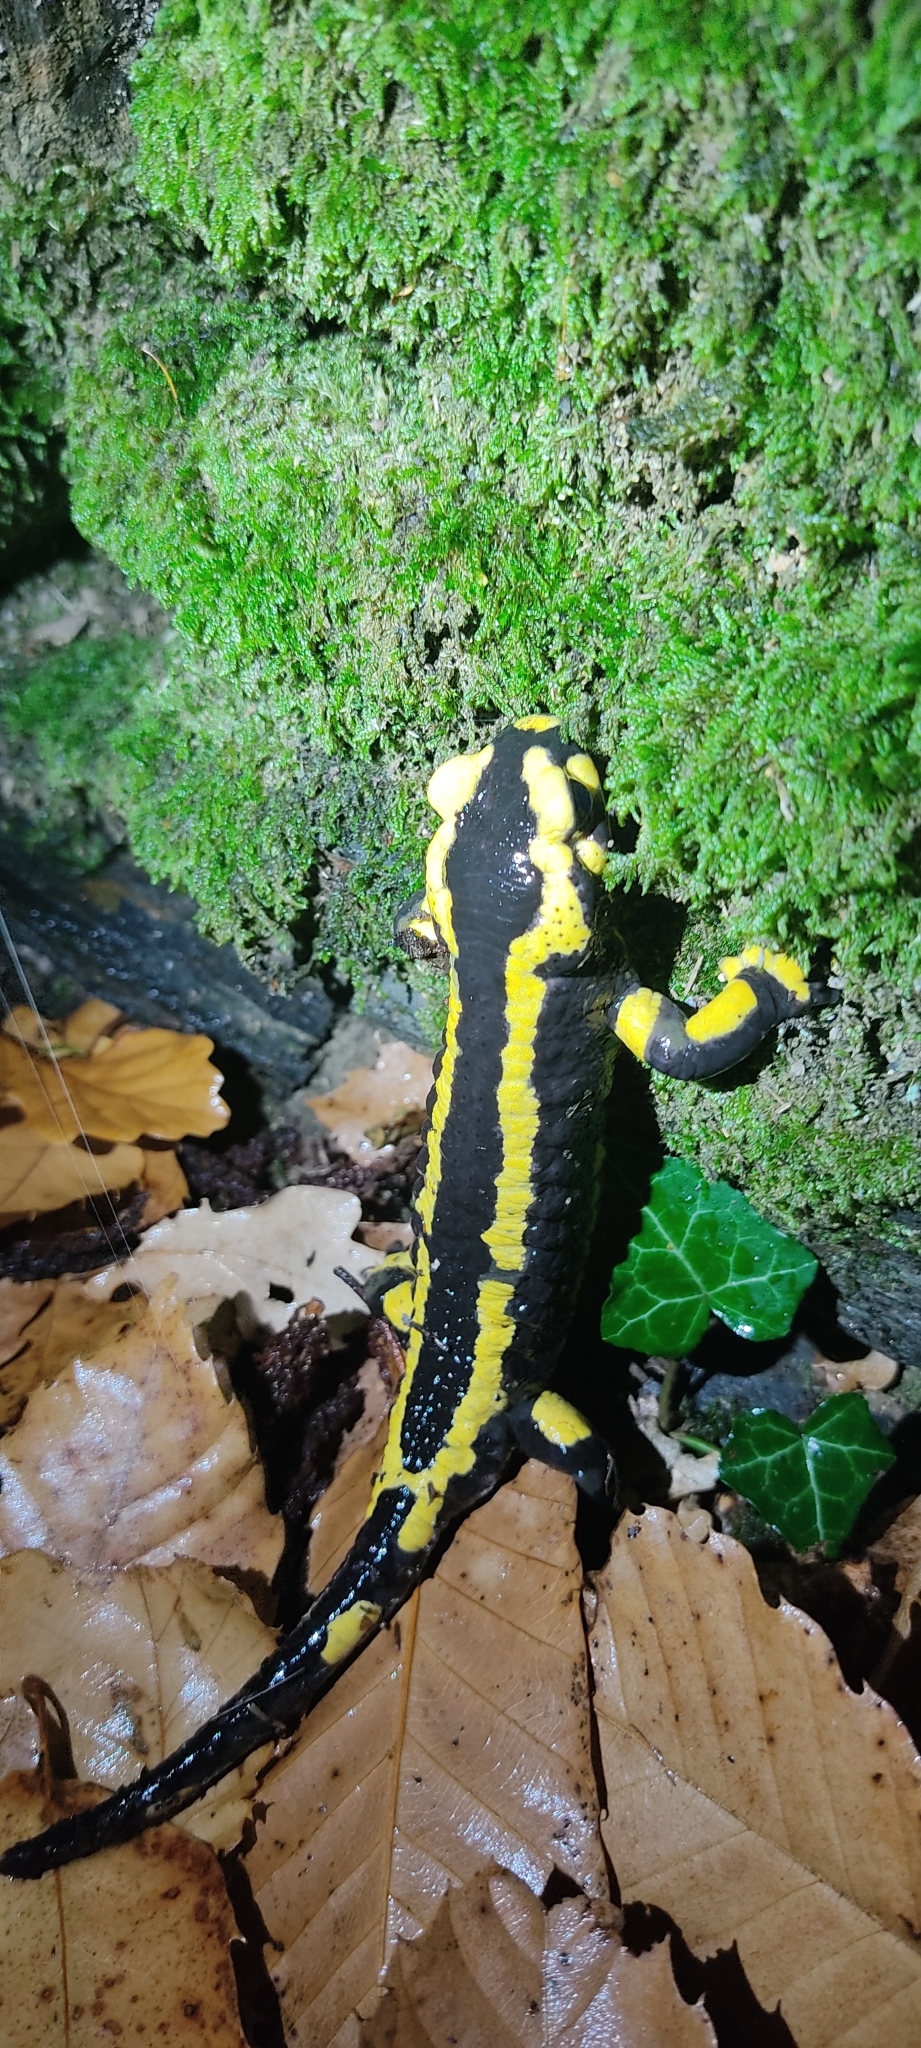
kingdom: Animalia
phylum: Chordata
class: Amphibia
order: Caudata
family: Salamandridae
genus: Salamandra
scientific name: Salamandra salamandra
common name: Fire salamander
